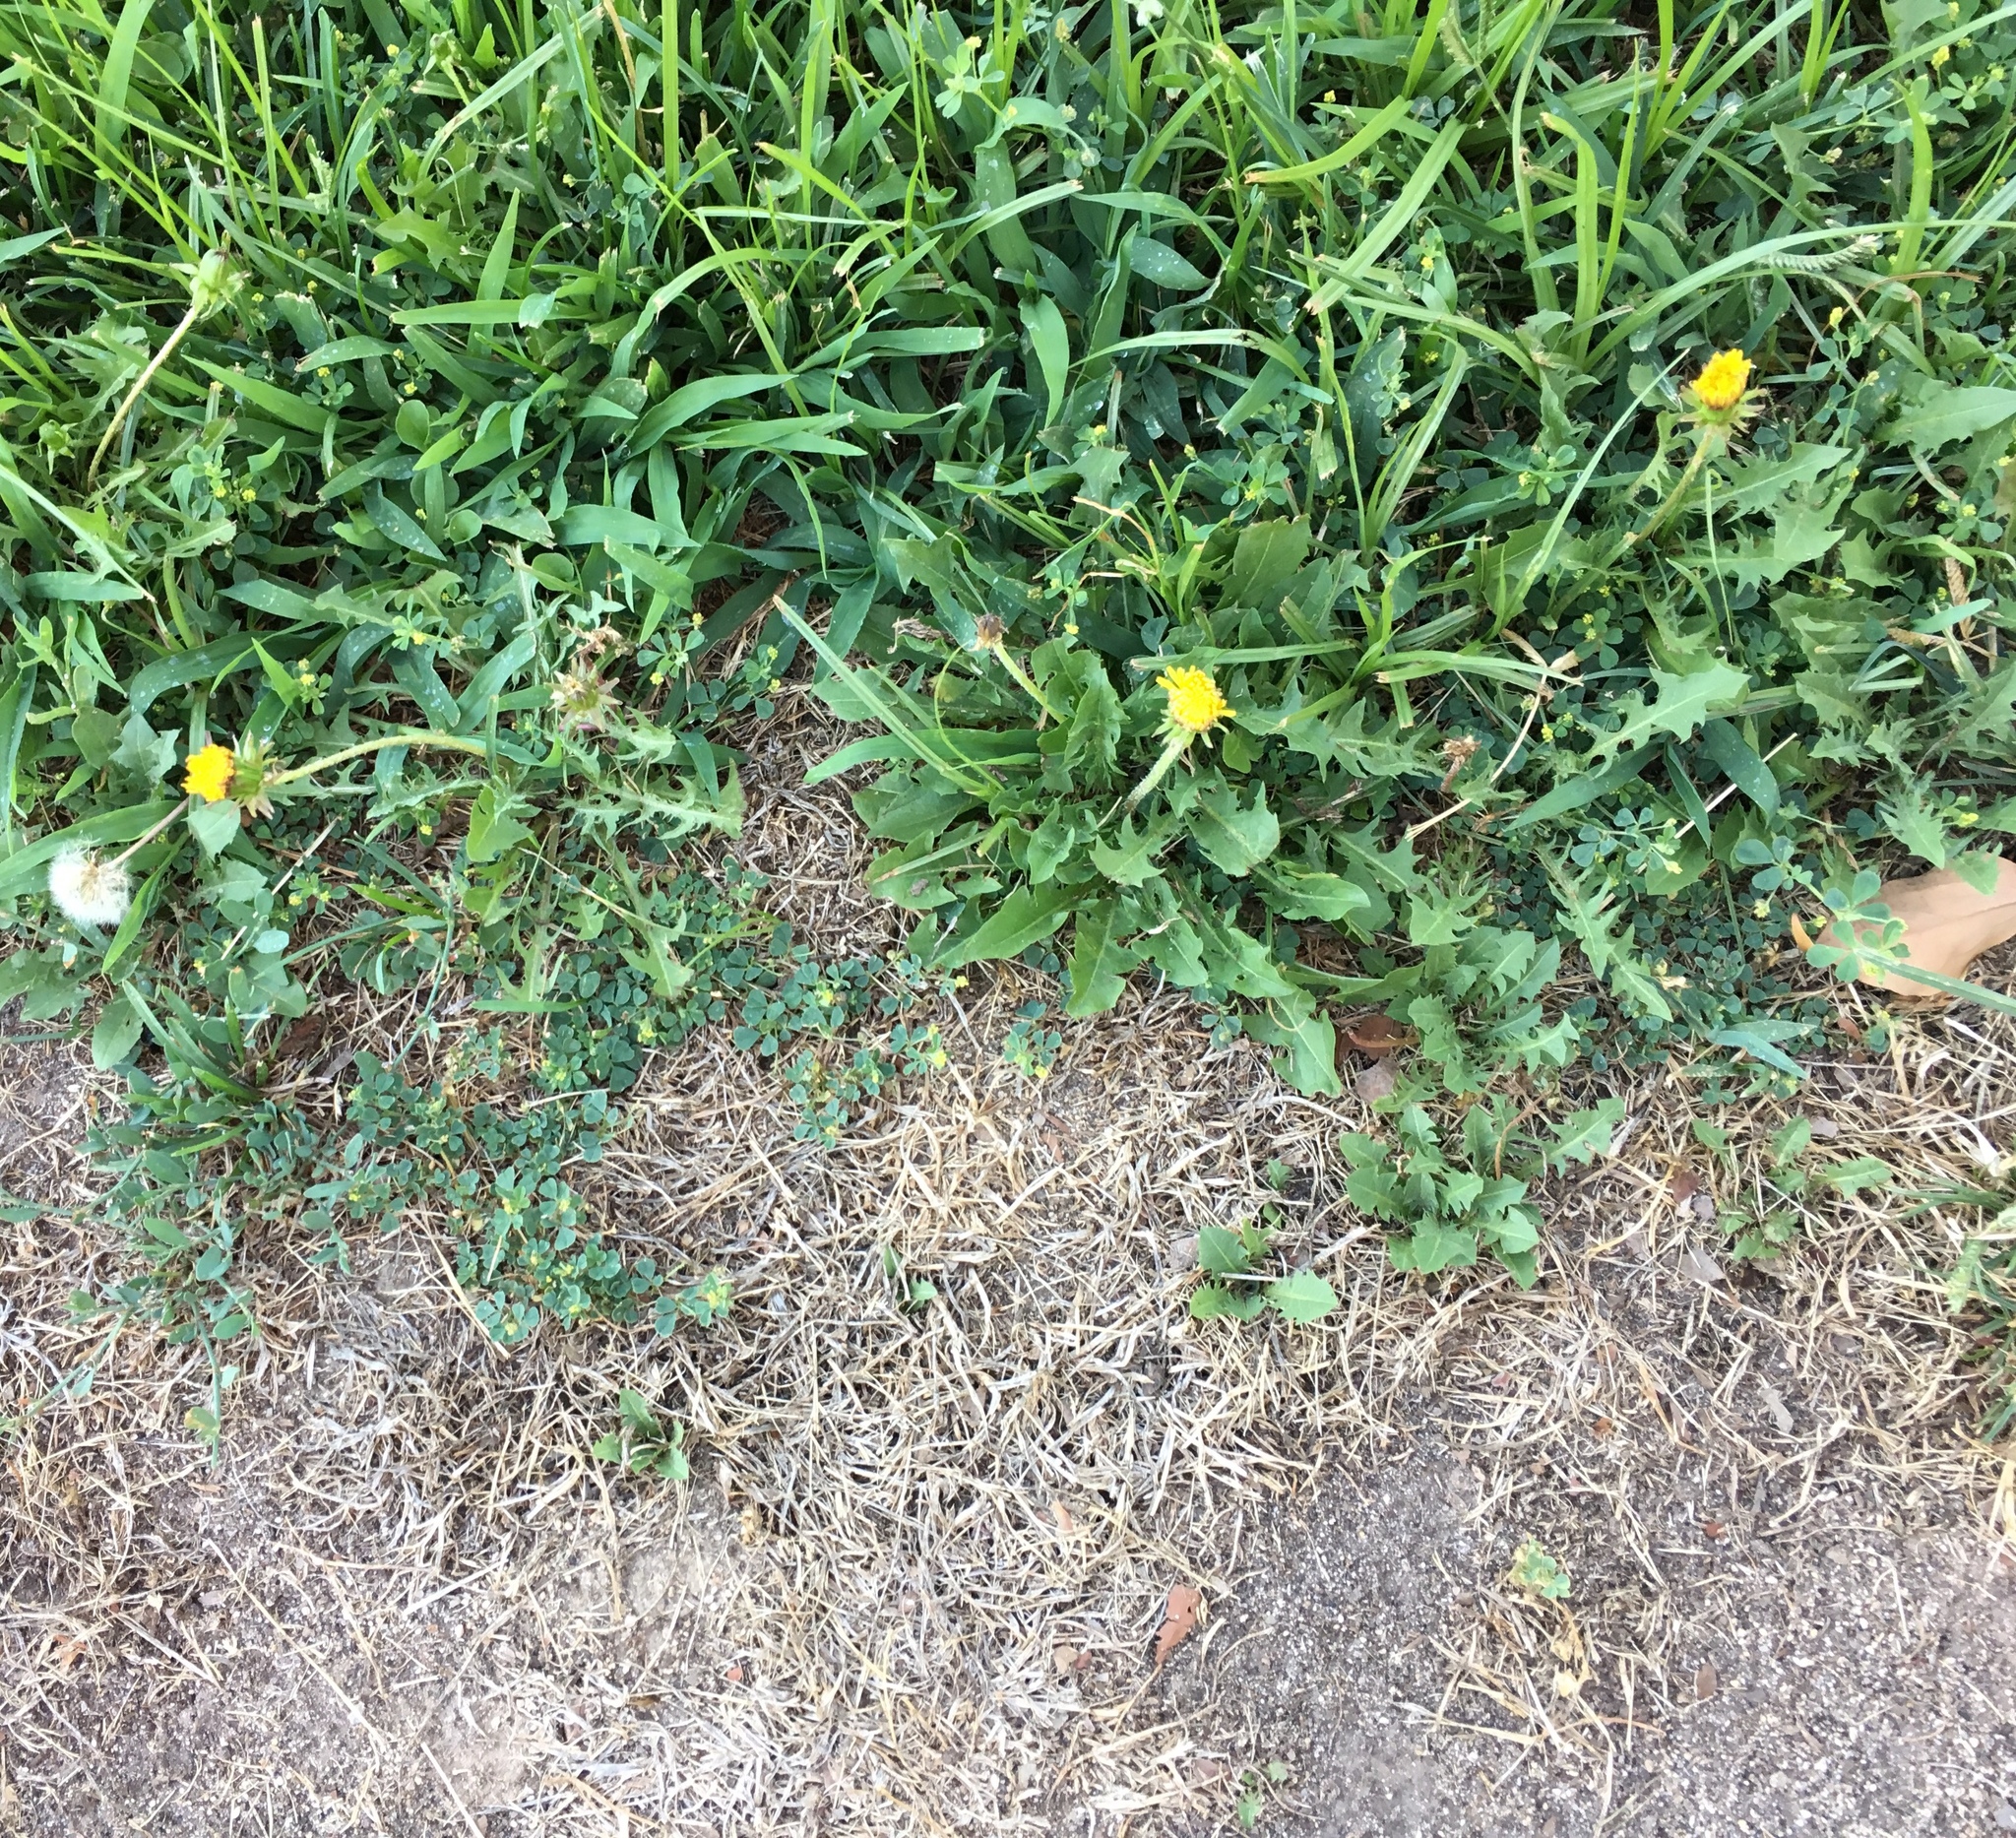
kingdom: Plantae
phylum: Tracheophyta
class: Magnoliopsida
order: Asterales
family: Asteraceae
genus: Taraxacum
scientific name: Taraxacum officinale
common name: Common dandelion
